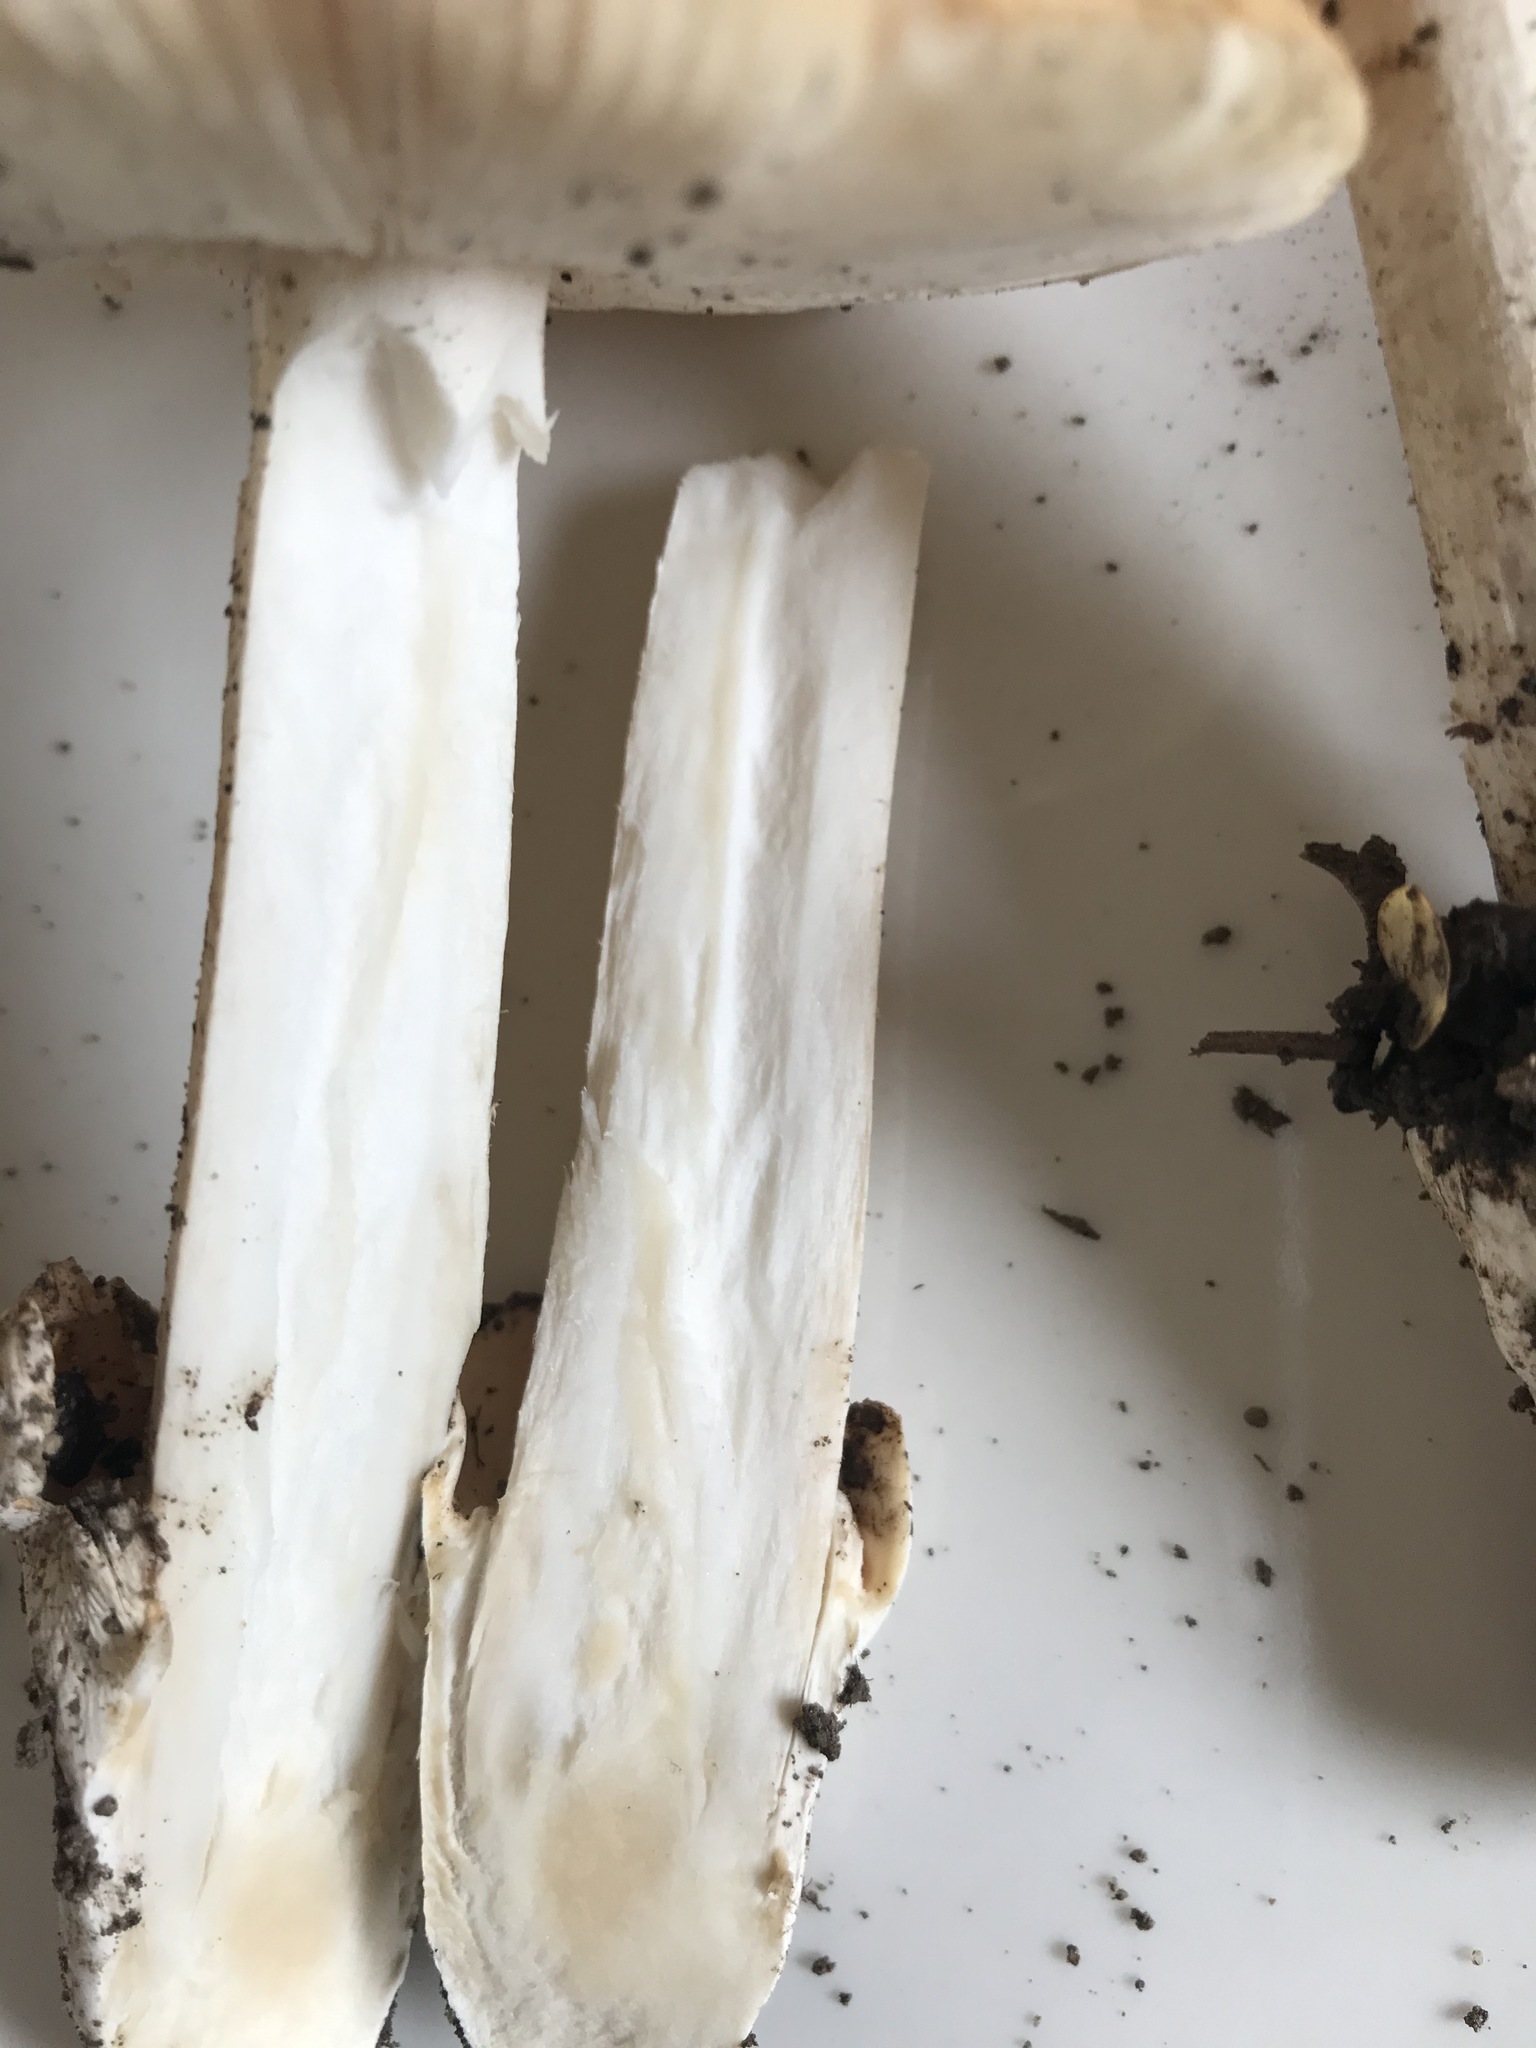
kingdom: Fungi
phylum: Basidiomycota
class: Agaricomycetes
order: Agaricales
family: Amanitaceae
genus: Amanita
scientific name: Amanita velosa
